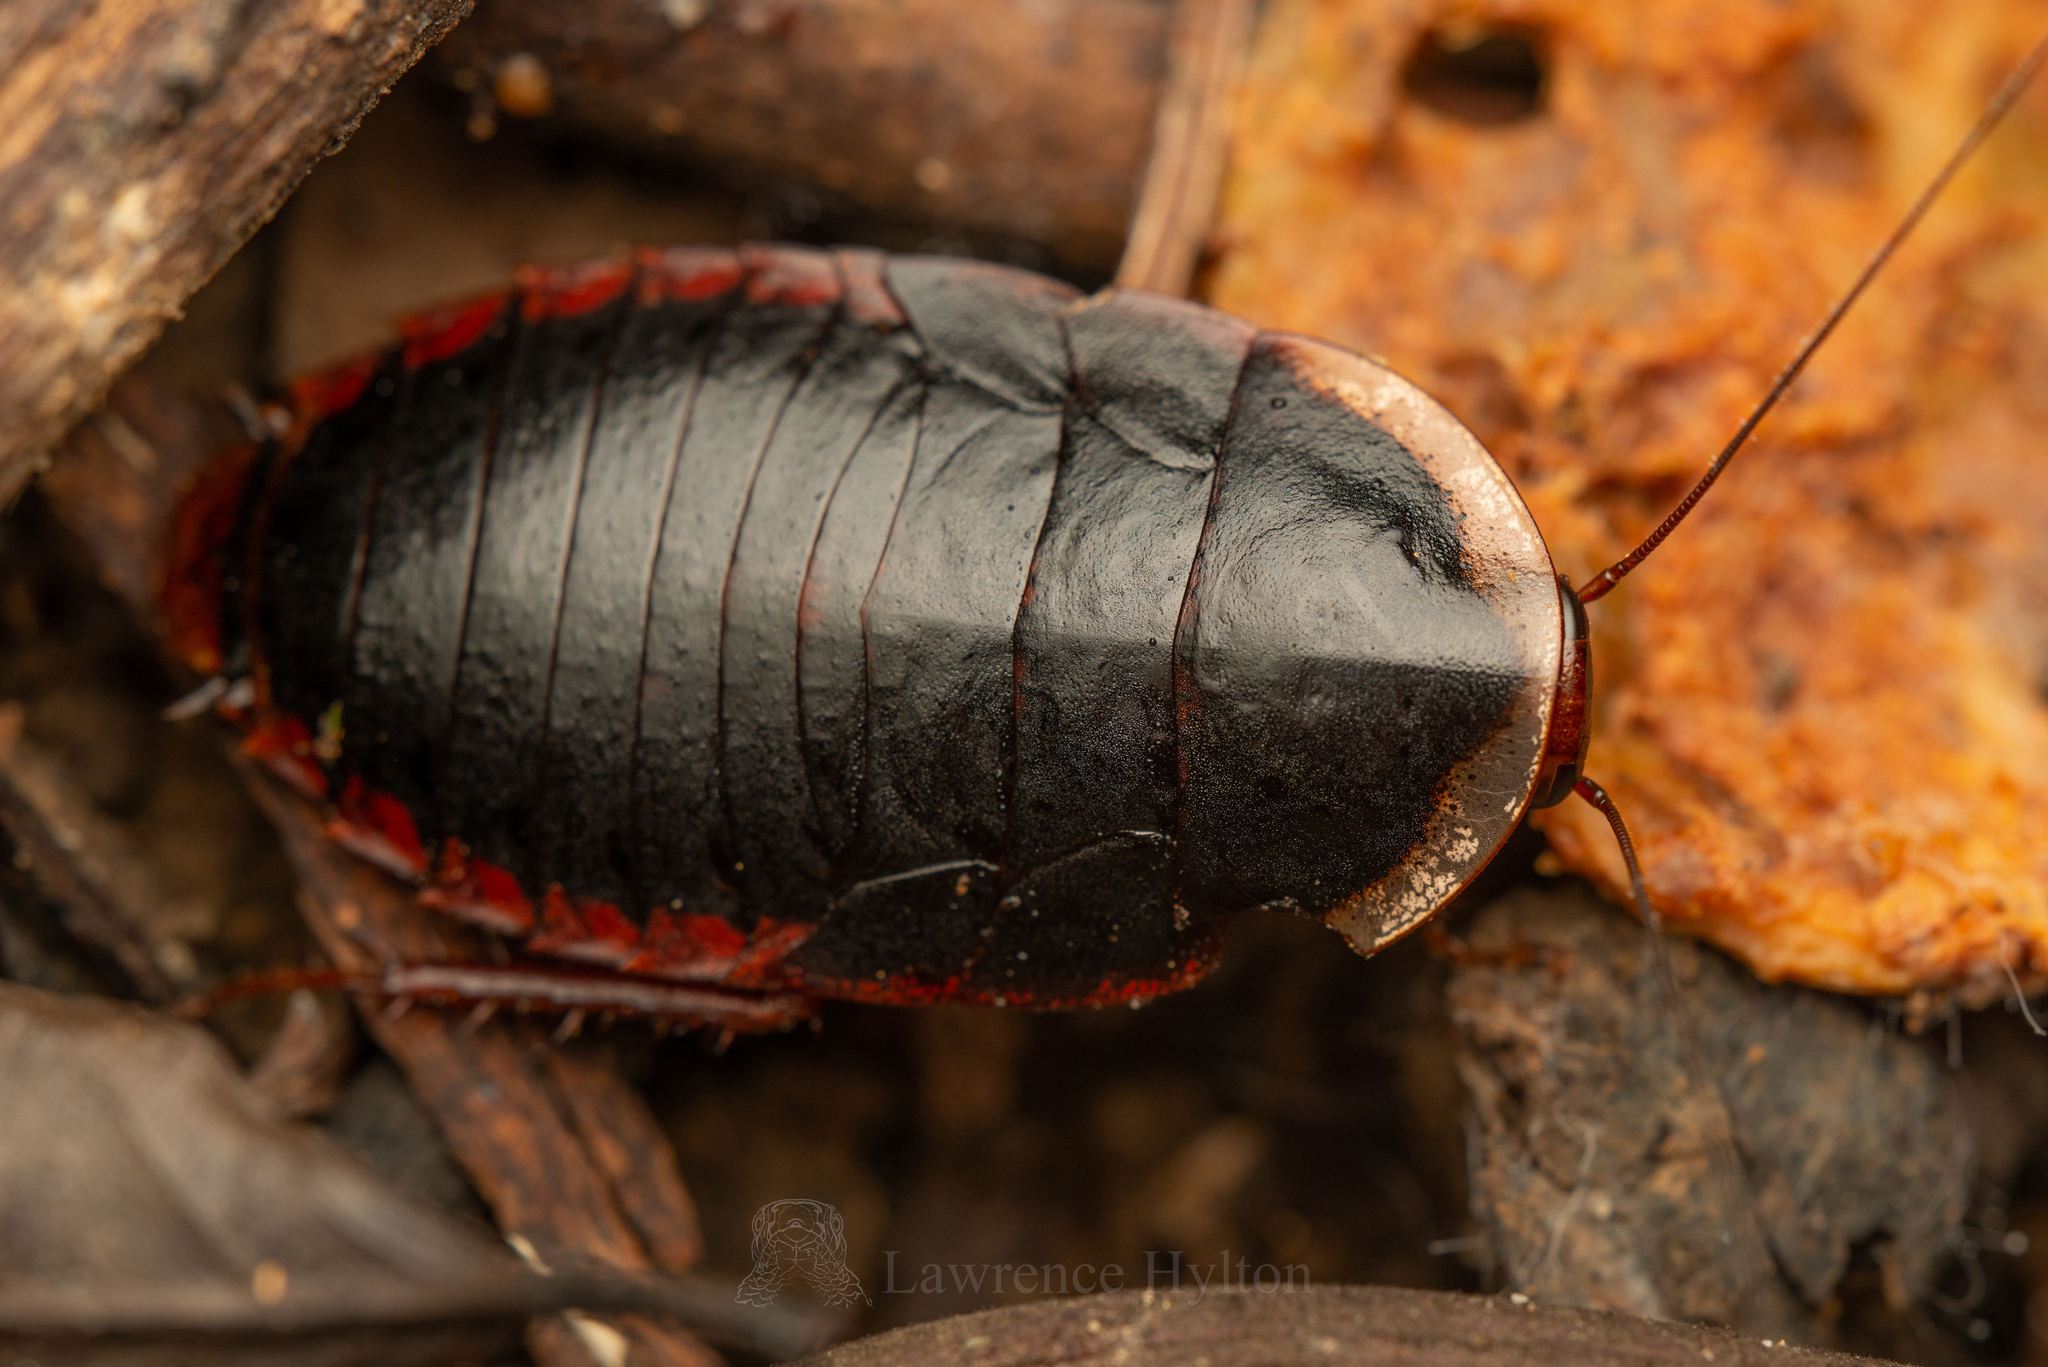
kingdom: Animalia
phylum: Arthropoda
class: Insecta
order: Blattodea
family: Blaberidae
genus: Opisthoplatia
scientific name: Opisthoplatia orientalis
